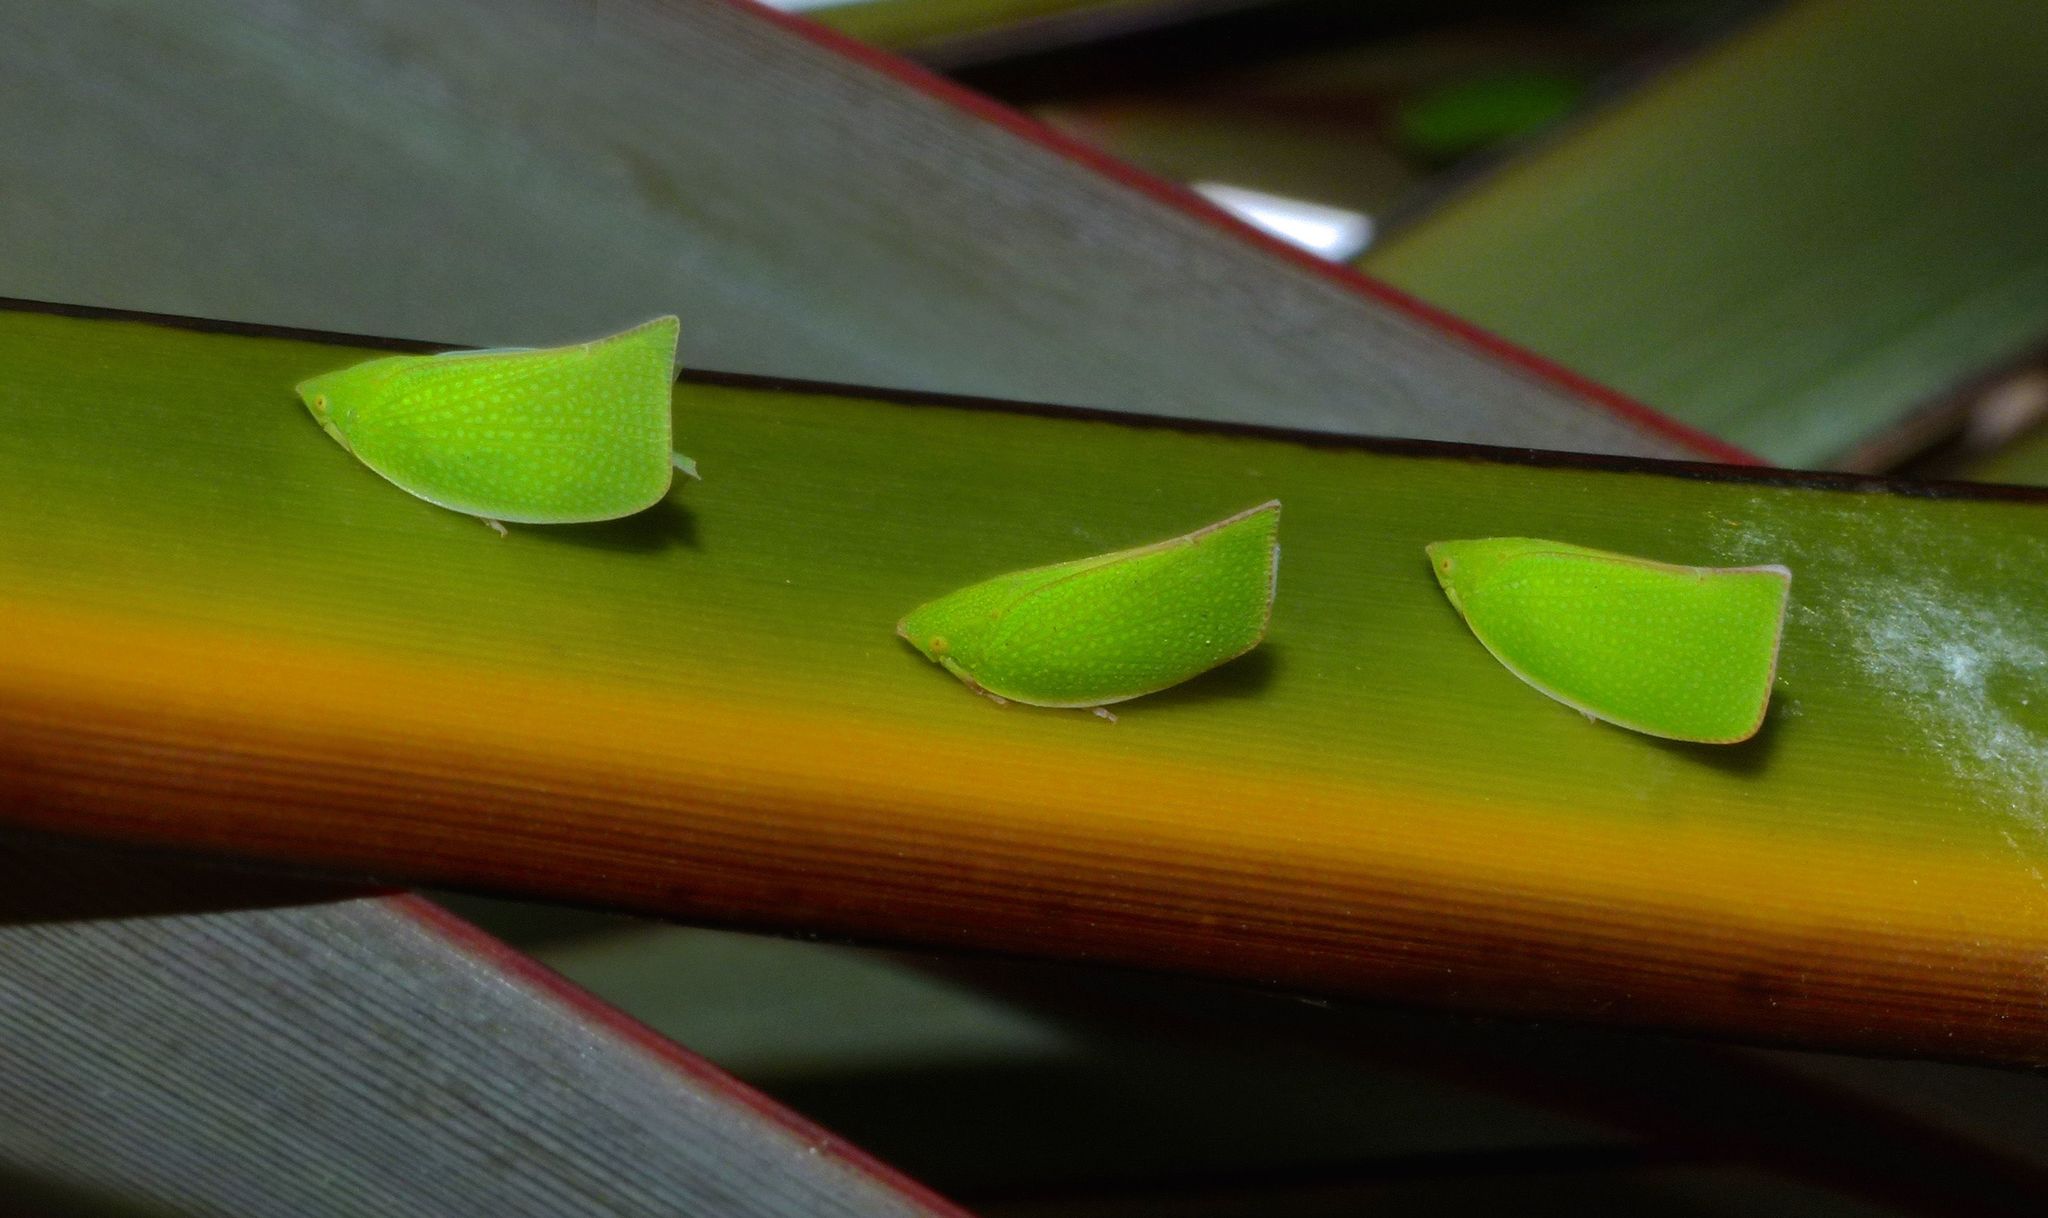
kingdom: Animalia
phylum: Arthropoda
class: Insecta
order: Hemiptera
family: Flatidae
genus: Siphanta
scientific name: Siphanta acuta
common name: Torpedo bug
